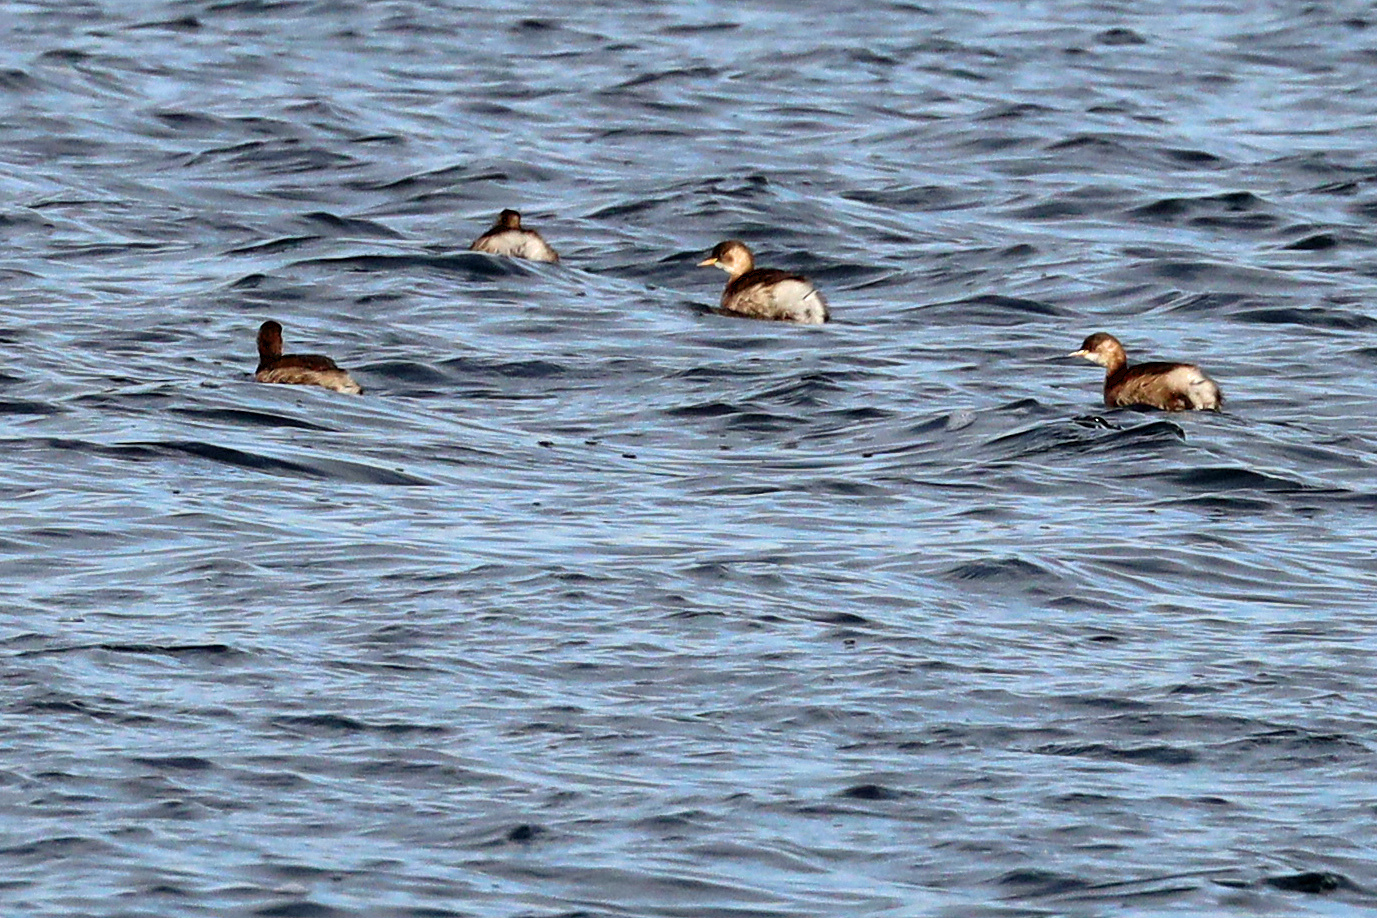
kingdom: Animalia
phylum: Chordata
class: Aves
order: Podicipediformes
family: Podicipedidae
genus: Tachybaptus
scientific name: Tachybaptus ruficollis
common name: Little grebe
